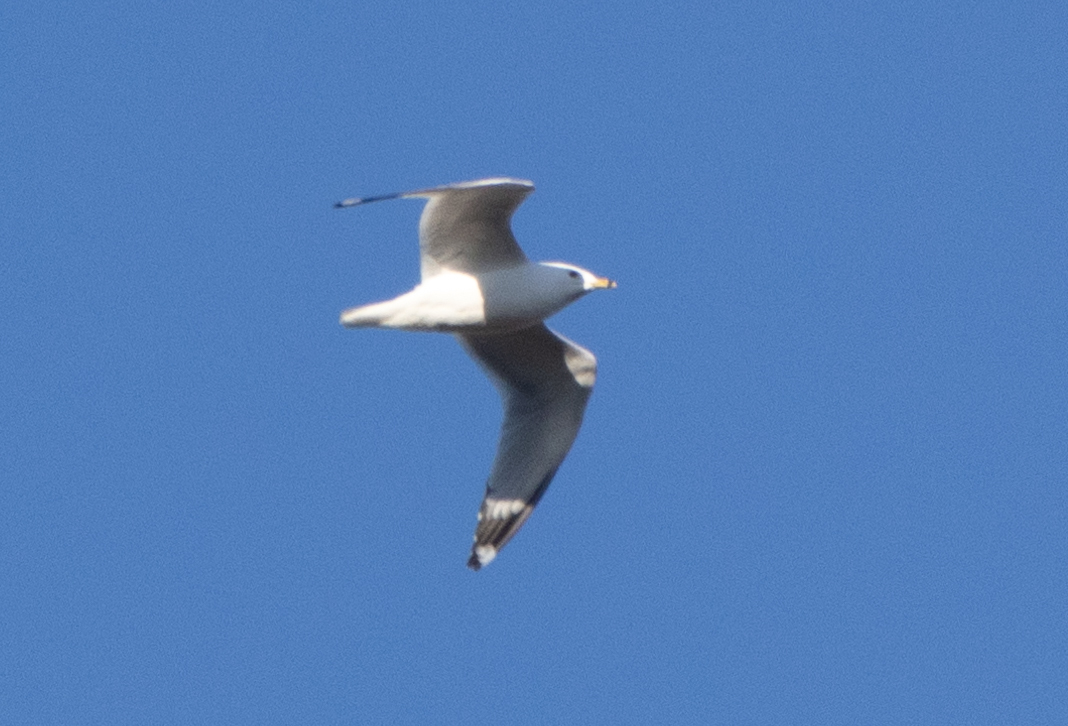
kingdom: Animalia
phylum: Chordata
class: Aves
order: Charadriiformes
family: Laridae
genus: Larus
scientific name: Larus delawarensis
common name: Ring-billed gull
